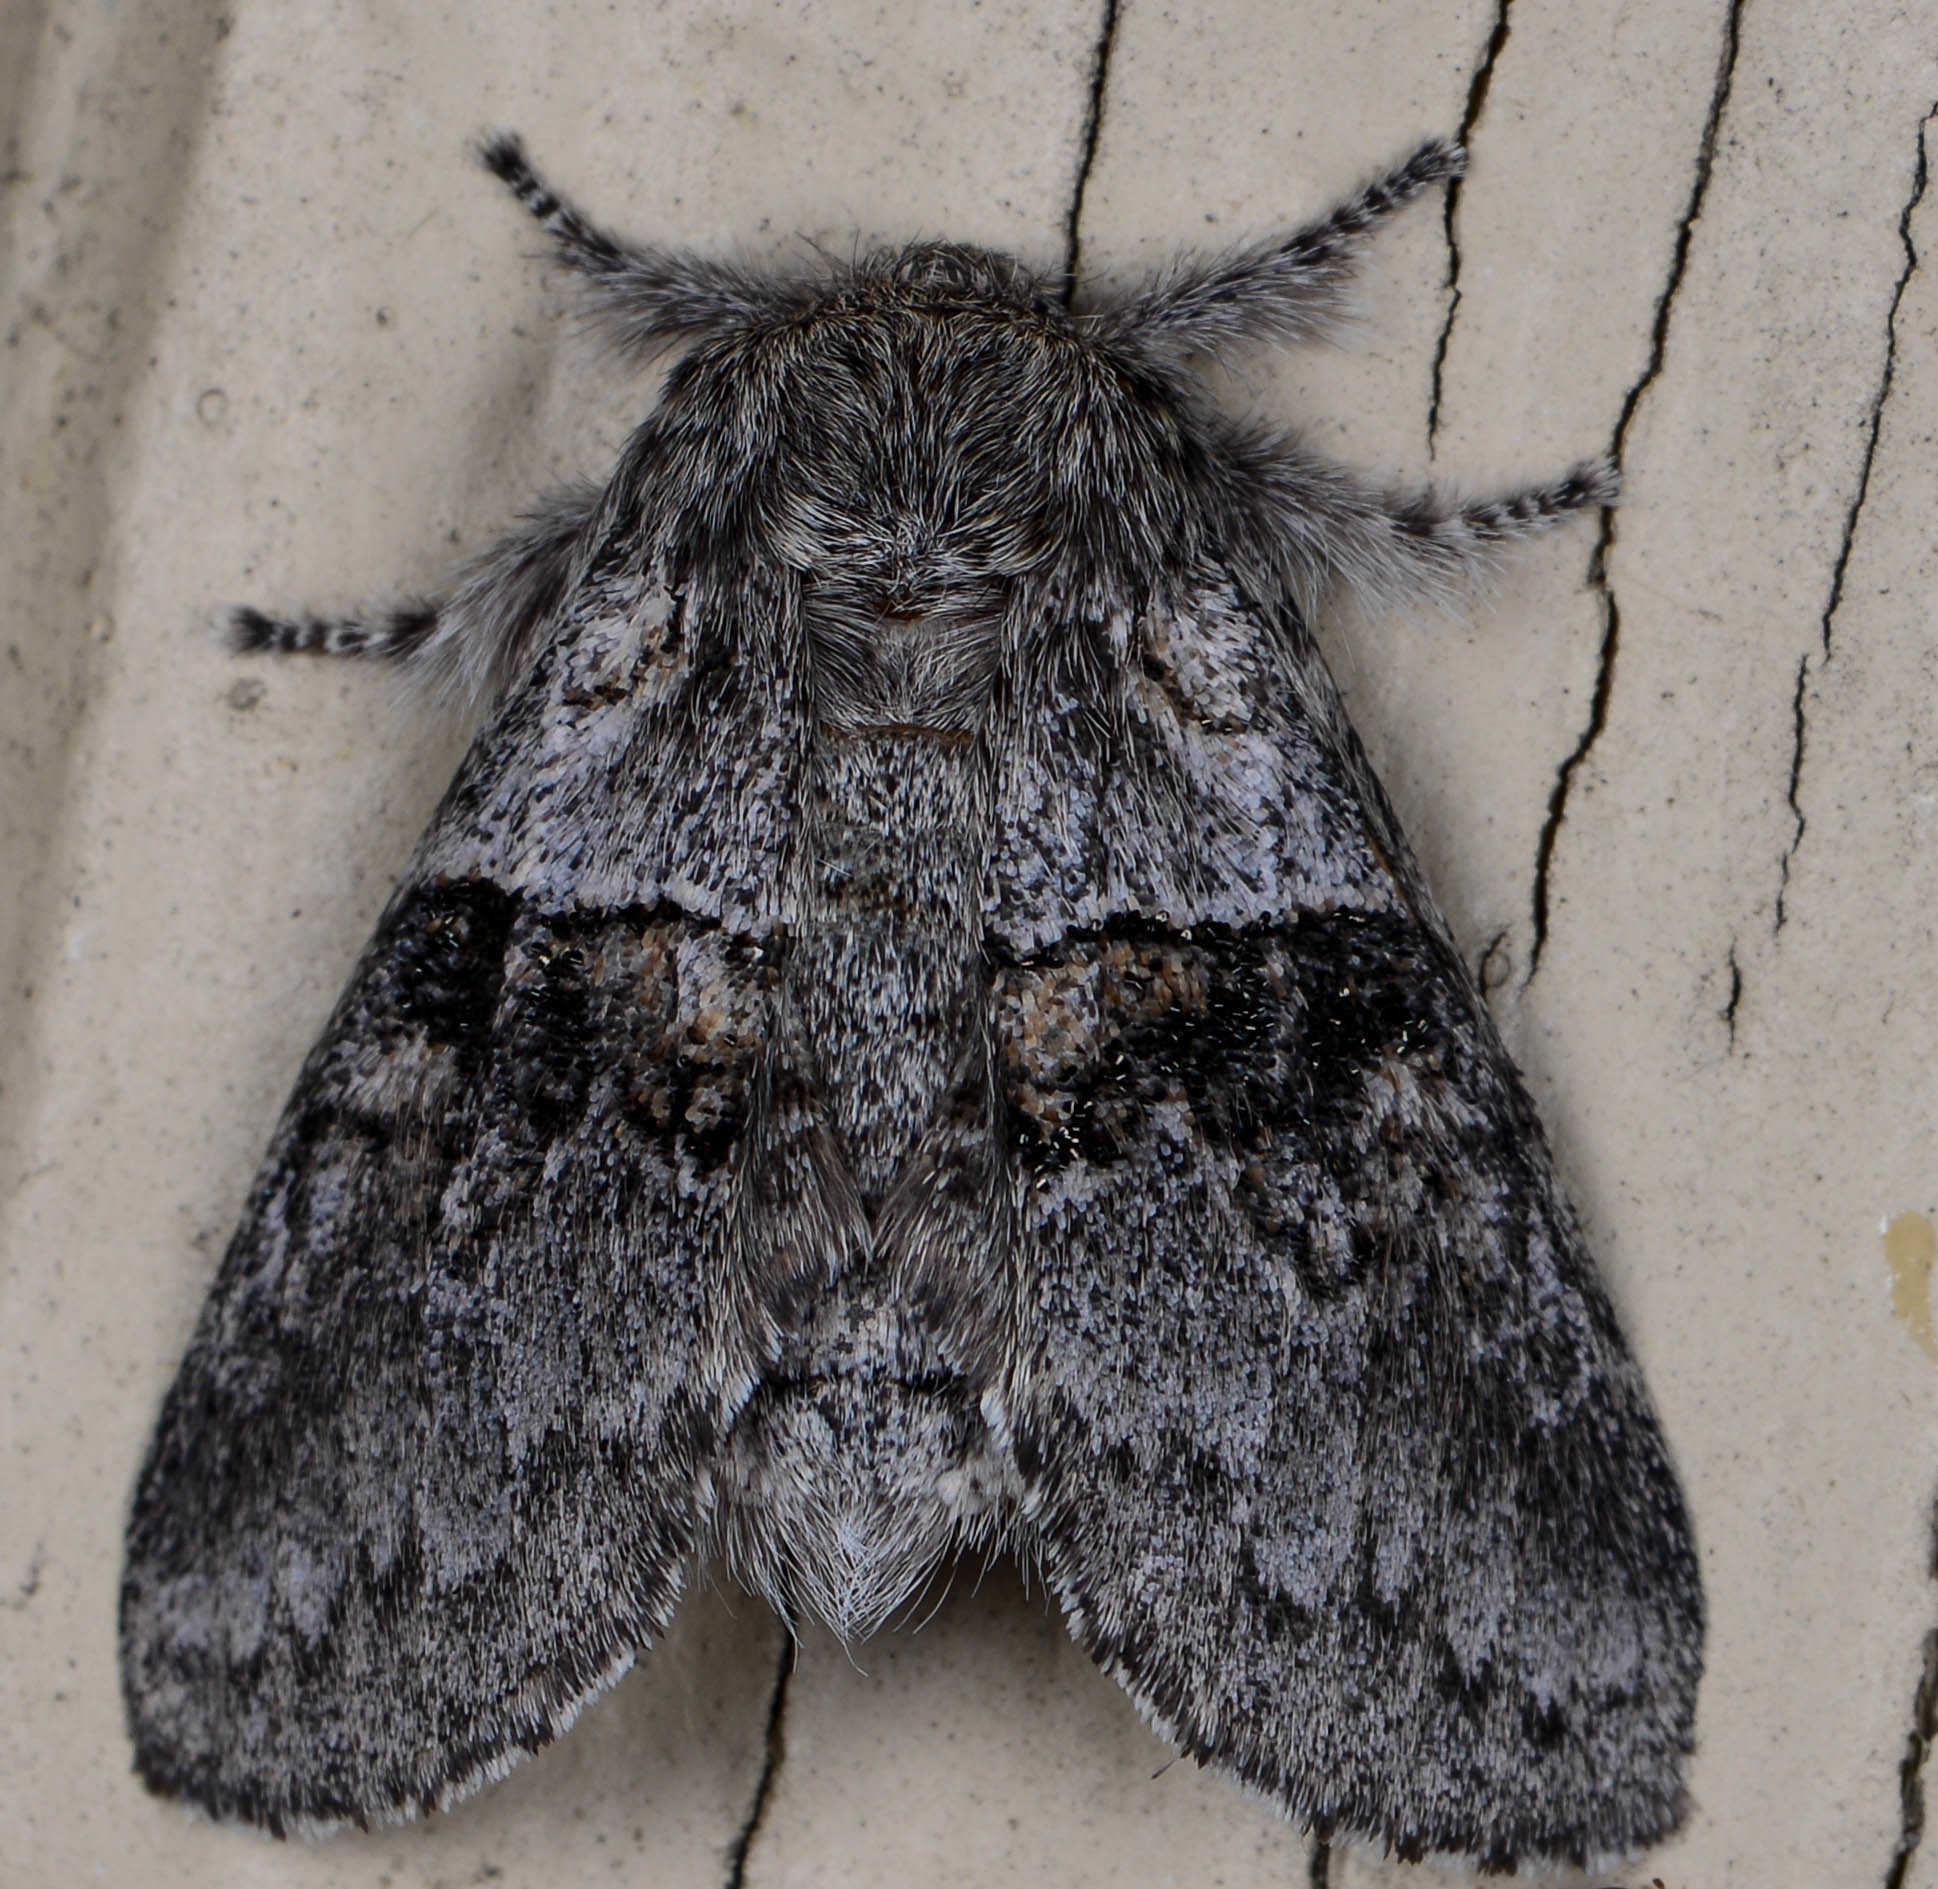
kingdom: Animalia
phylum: Arthropoda
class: Insecta
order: Lepidoptera
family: Notodontidae
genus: Gluphisia
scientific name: Gluphisia septentrionis
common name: Common gluphisia
